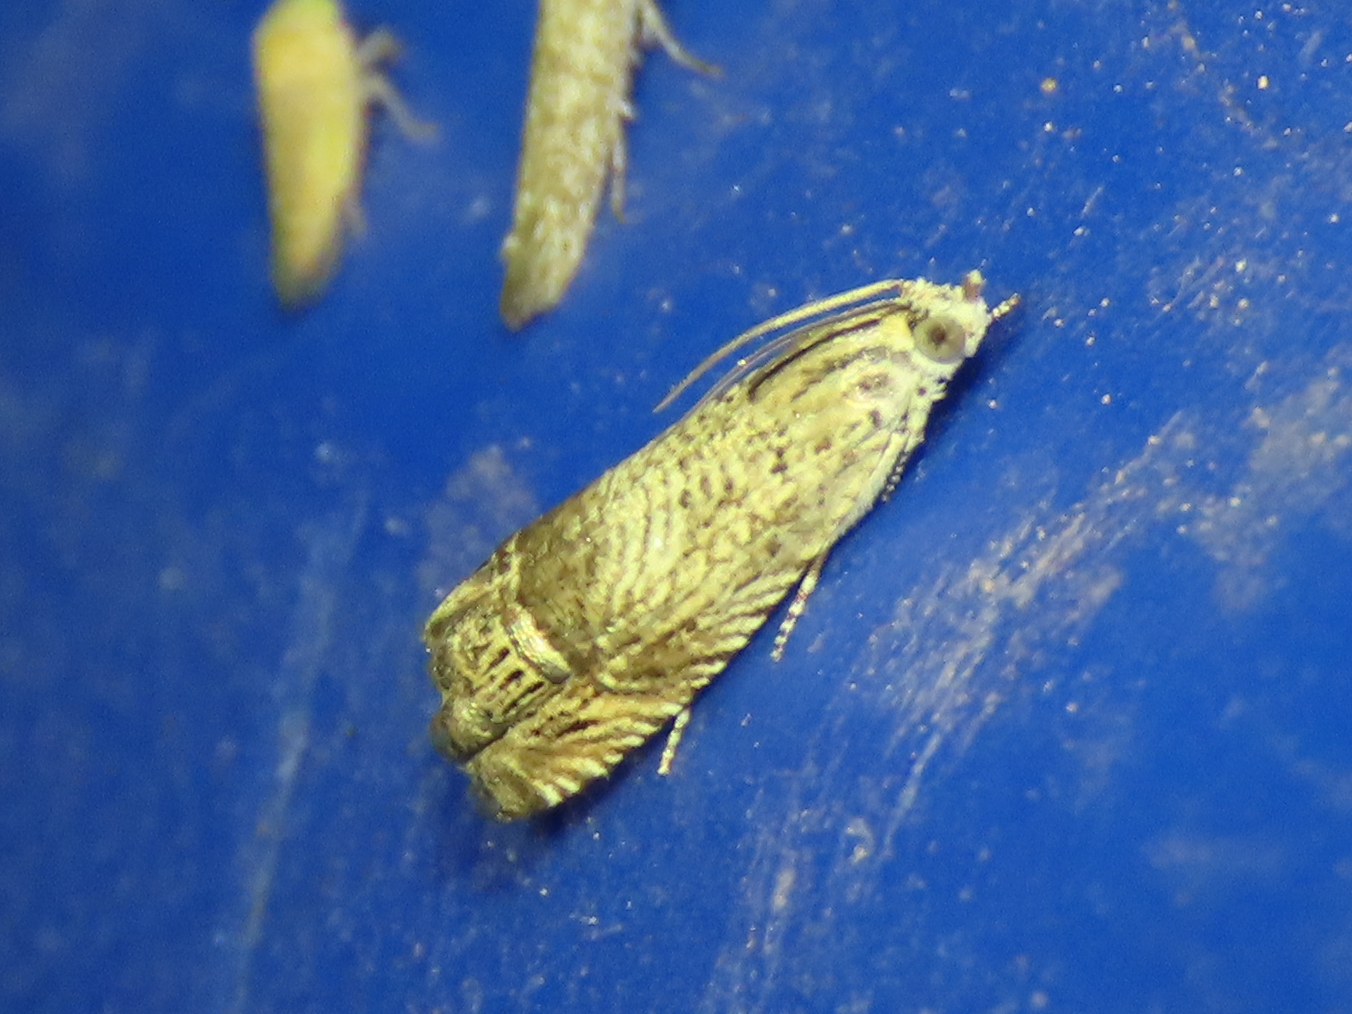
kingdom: Animalia
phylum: Arthropoda
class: Insecta
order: Lepidoptera
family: Tortricidae
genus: Ofatulena
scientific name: Ofatulena duodecemstriata
